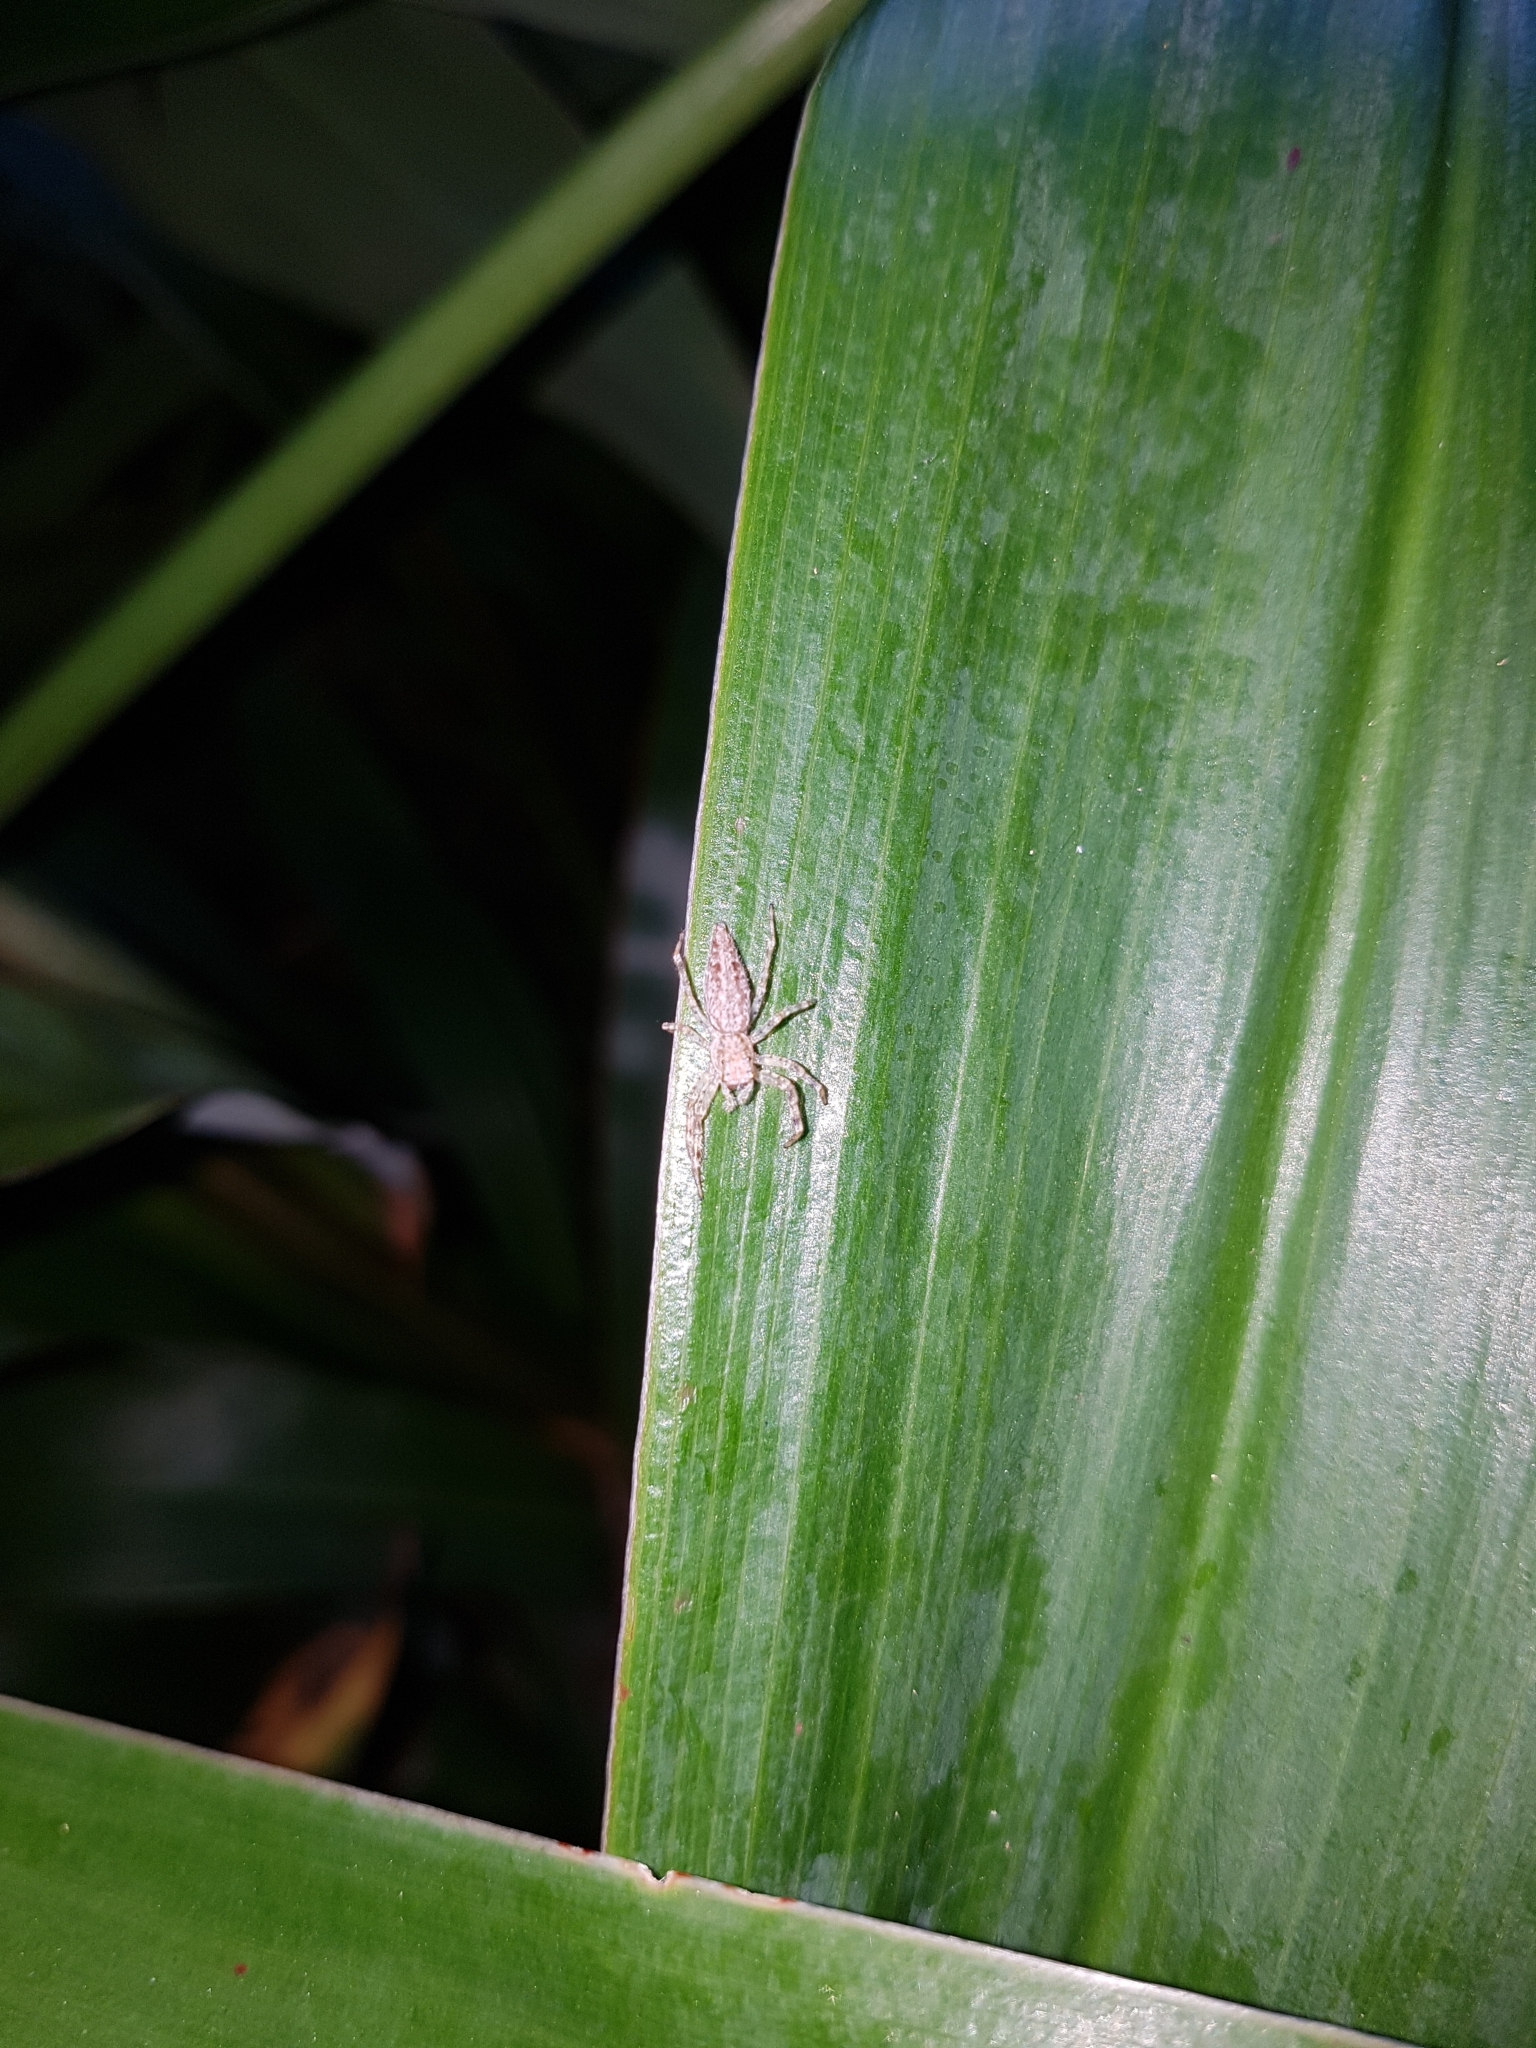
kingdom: Animalia
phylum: Arthropoda
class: Arachnida
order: Araneae
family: Salticidae
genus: Helpis
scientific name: Helpis minitabunda
